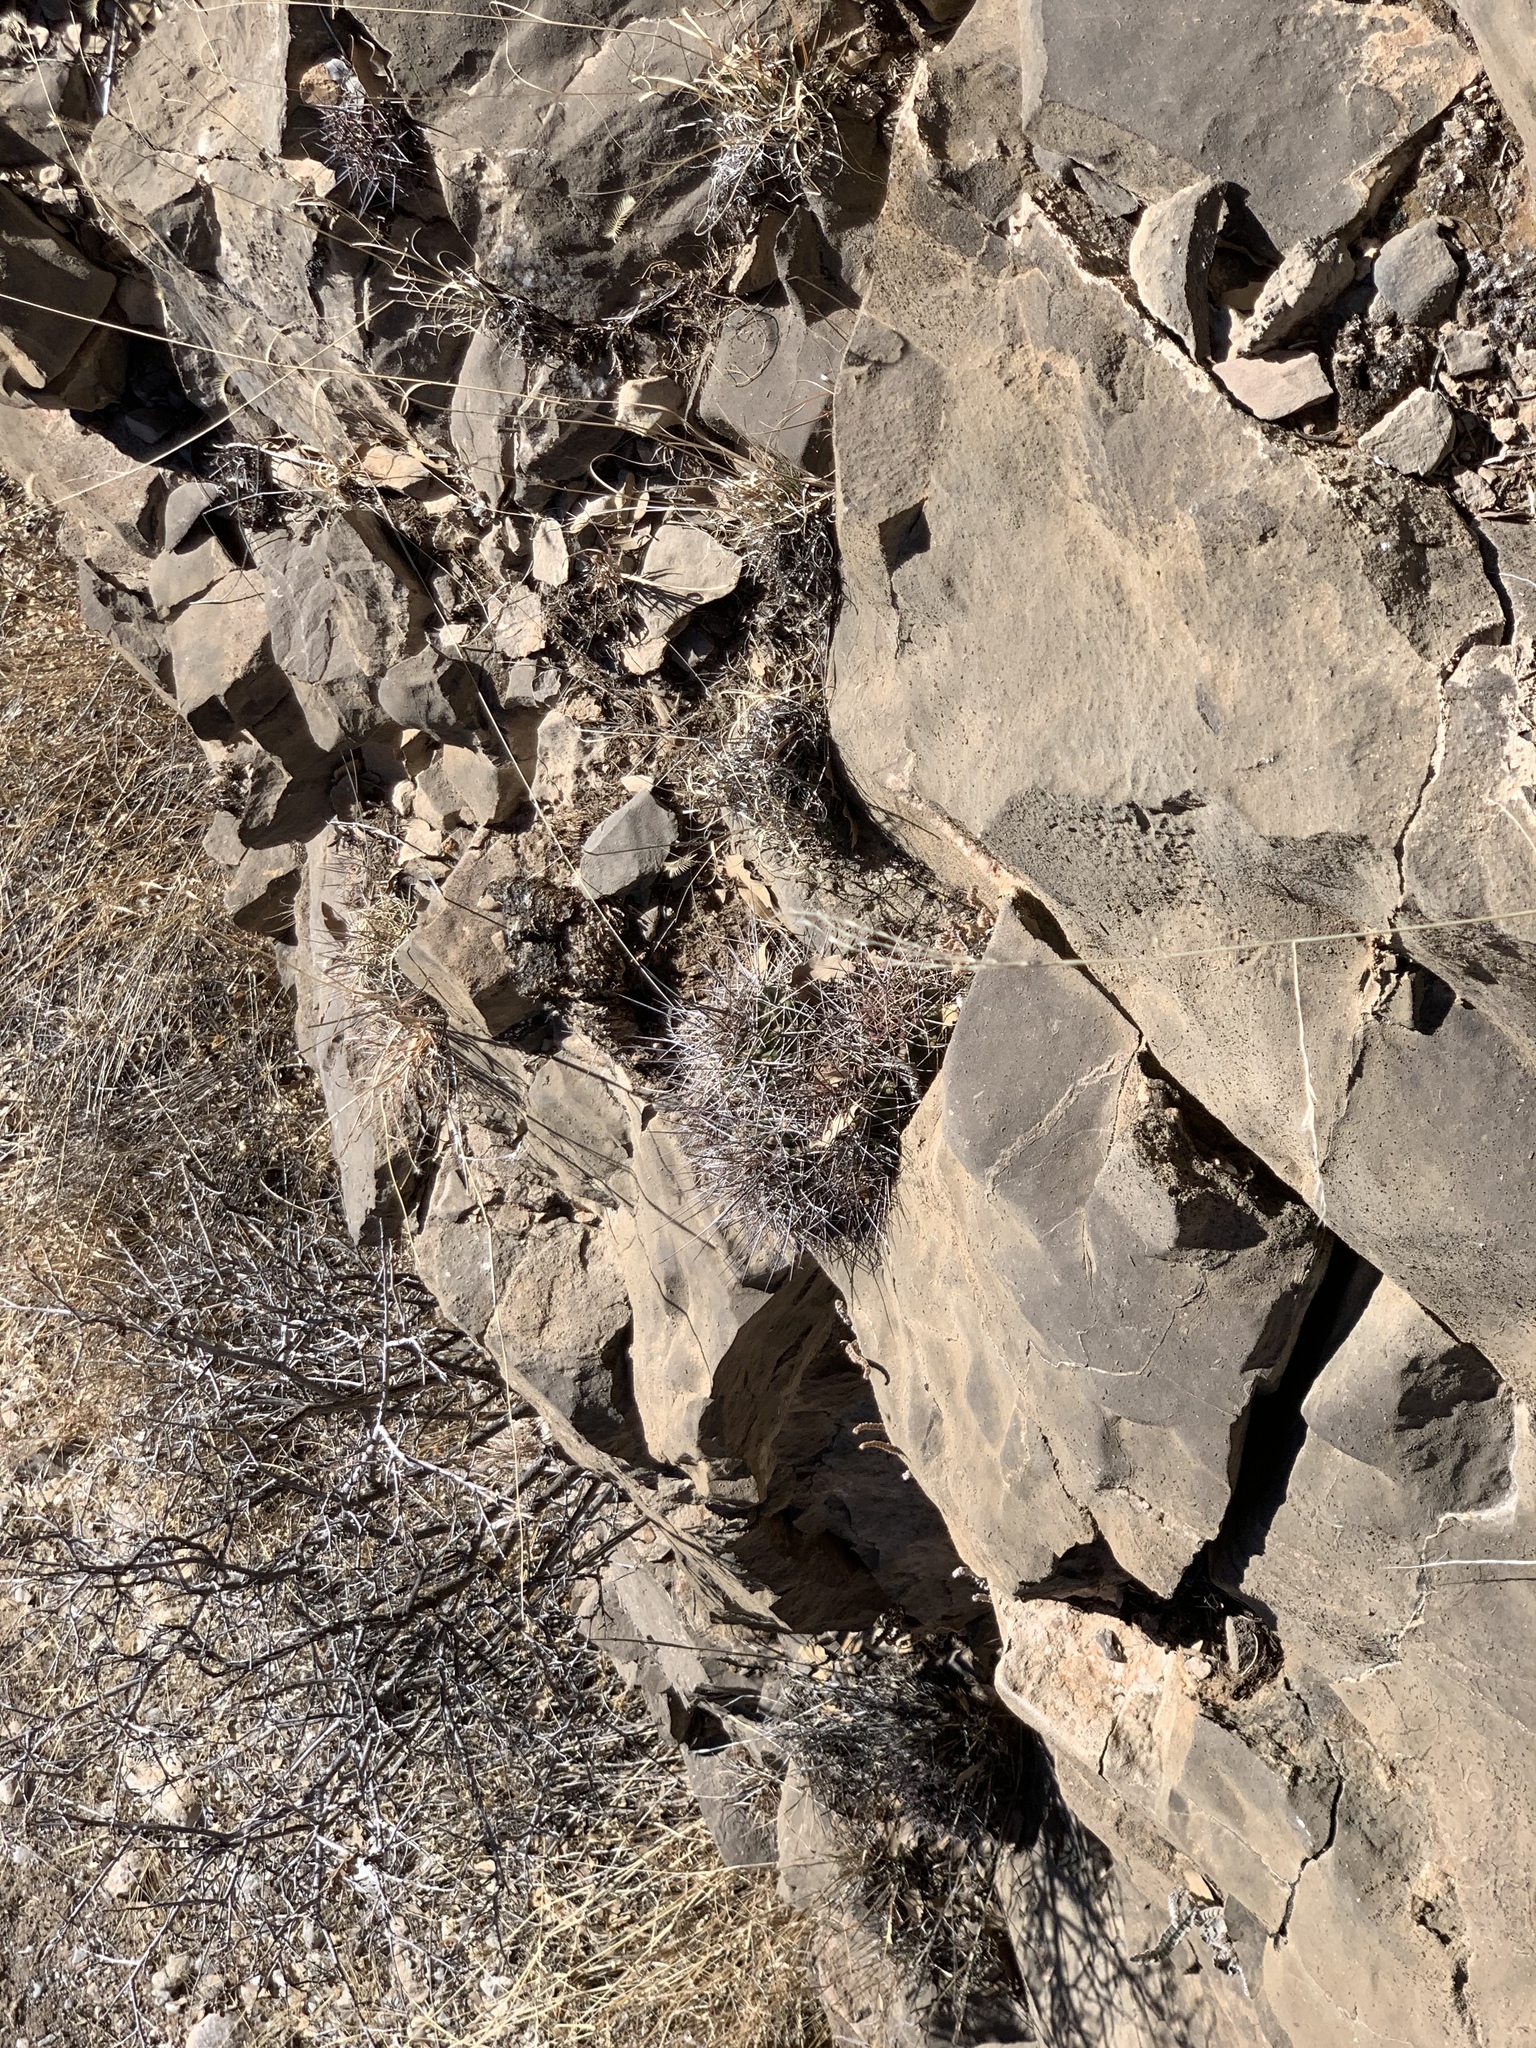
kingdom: Plantae
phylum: Tracheophyta
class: Magnoliopsida
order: Caryophyllales
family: Cactaceae
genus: Echinocereus
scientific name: Echinocereus coccineus
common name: Scarlet hedgehog cactus
